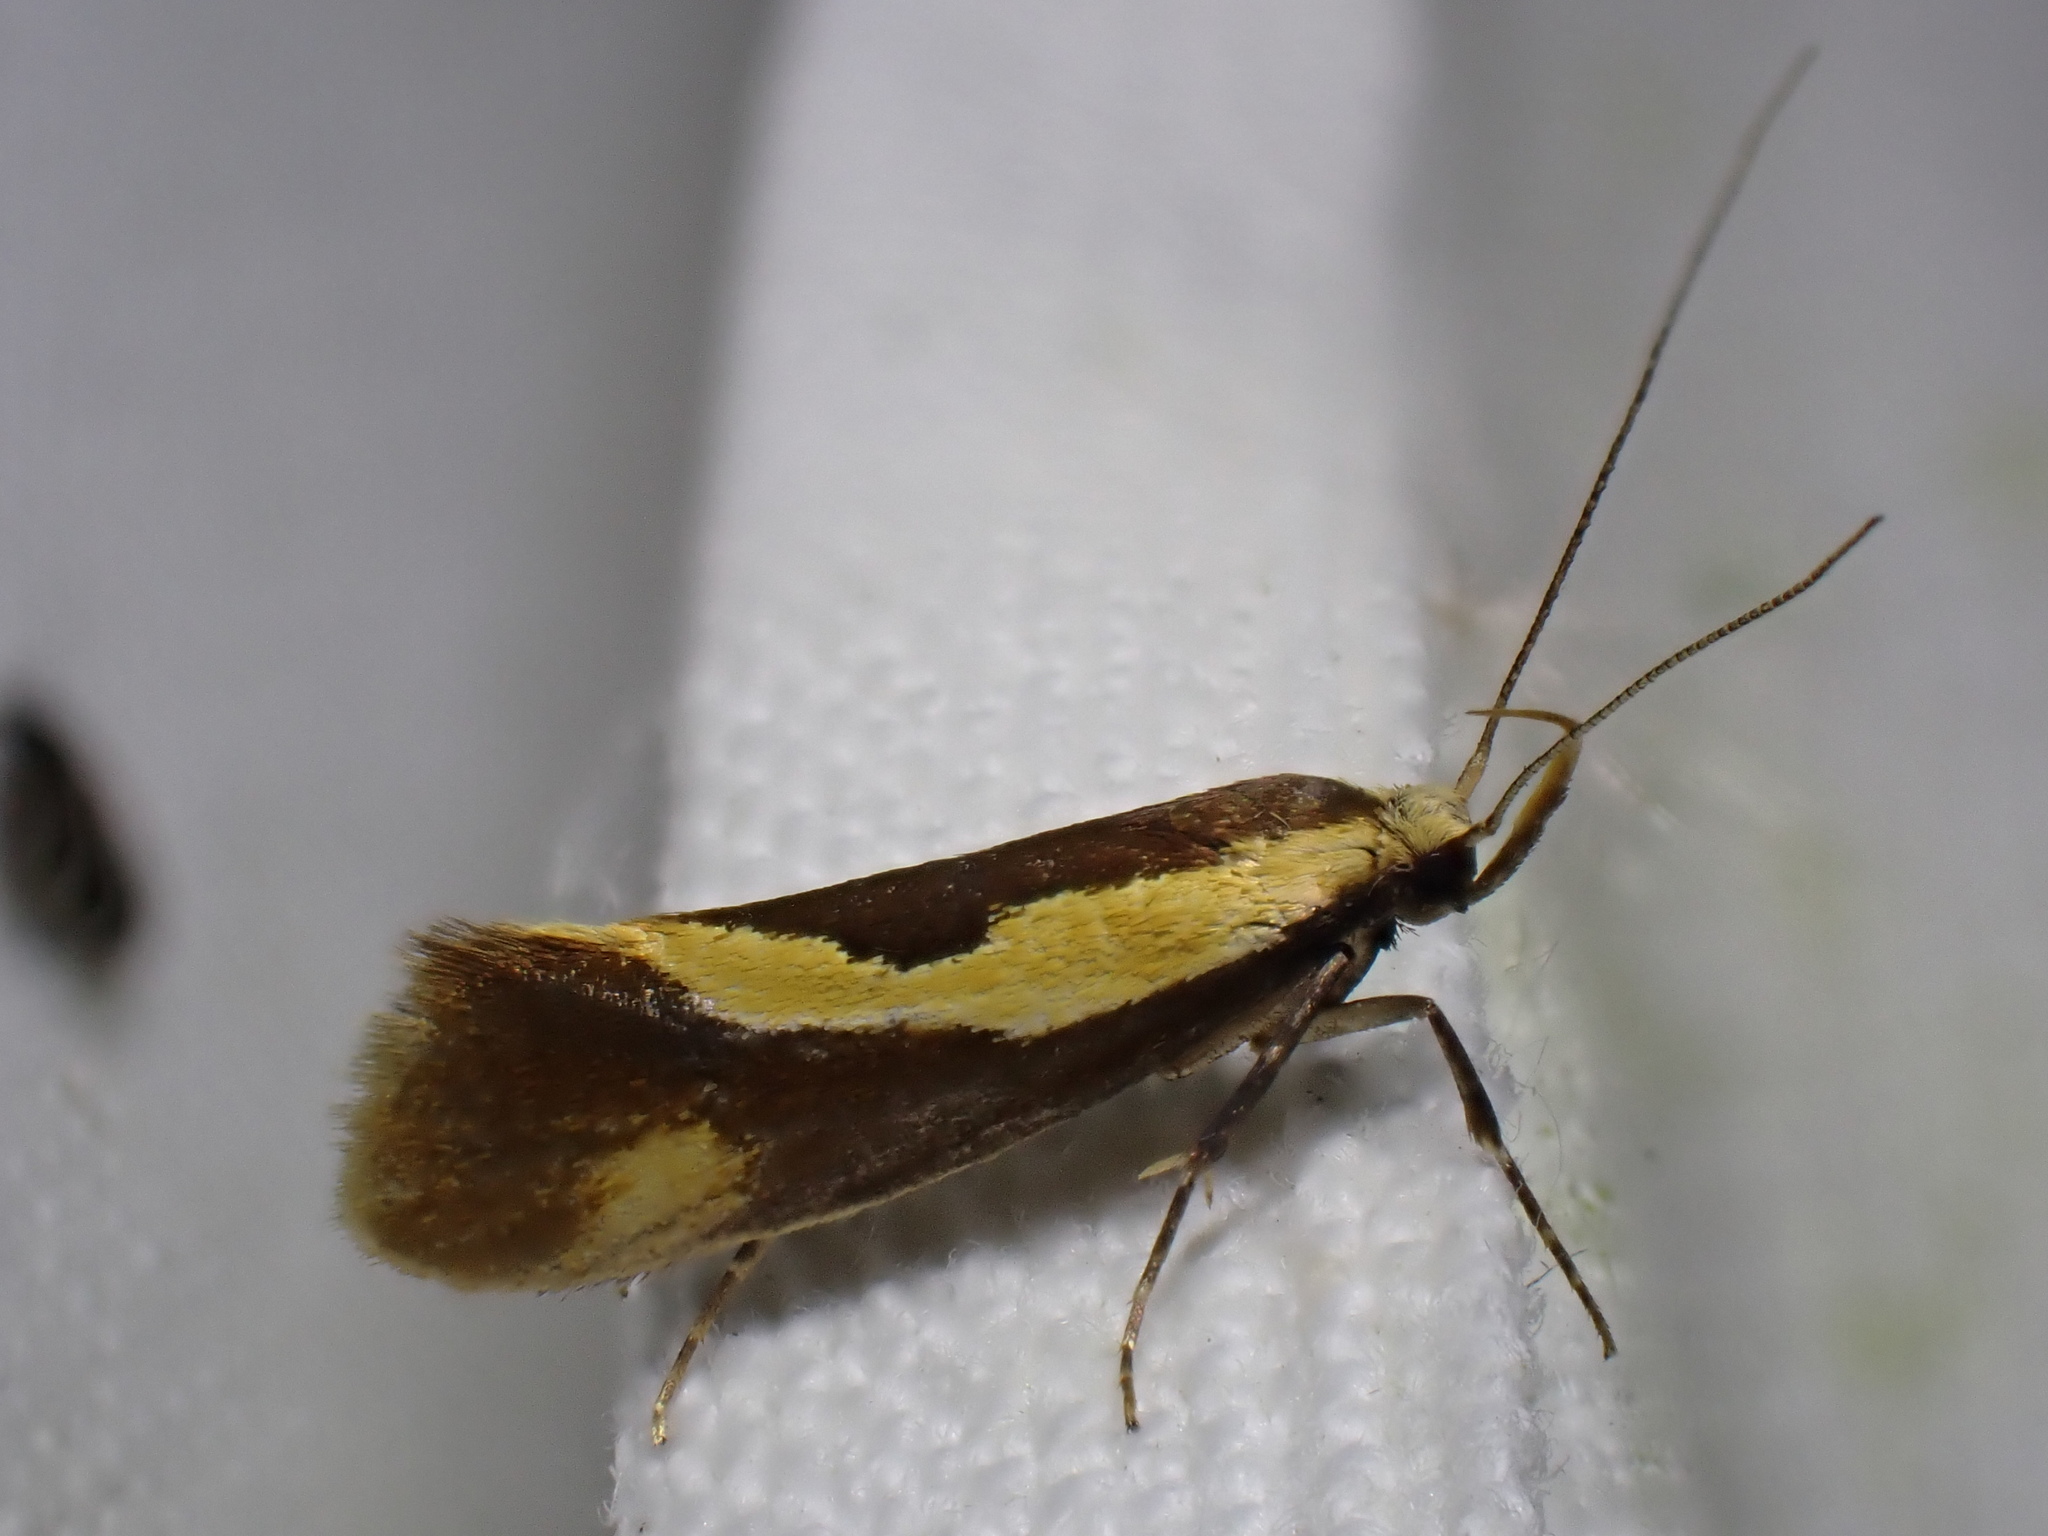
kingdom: Animalia
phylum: Arthropoda
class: Insecta
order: Lepidoptera
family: Oecophoridae
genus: Harpella
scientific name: Harpella forficella
